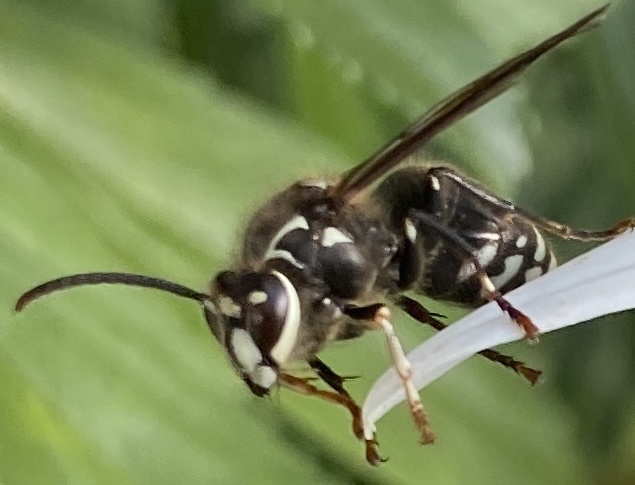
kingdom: Animalia
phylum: Arthropoda
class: Insecta
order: Hymenoptera
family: Vespidae
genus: Dolichovespula
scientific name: Dolichovespula maculata
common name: Bald-faced hornet
